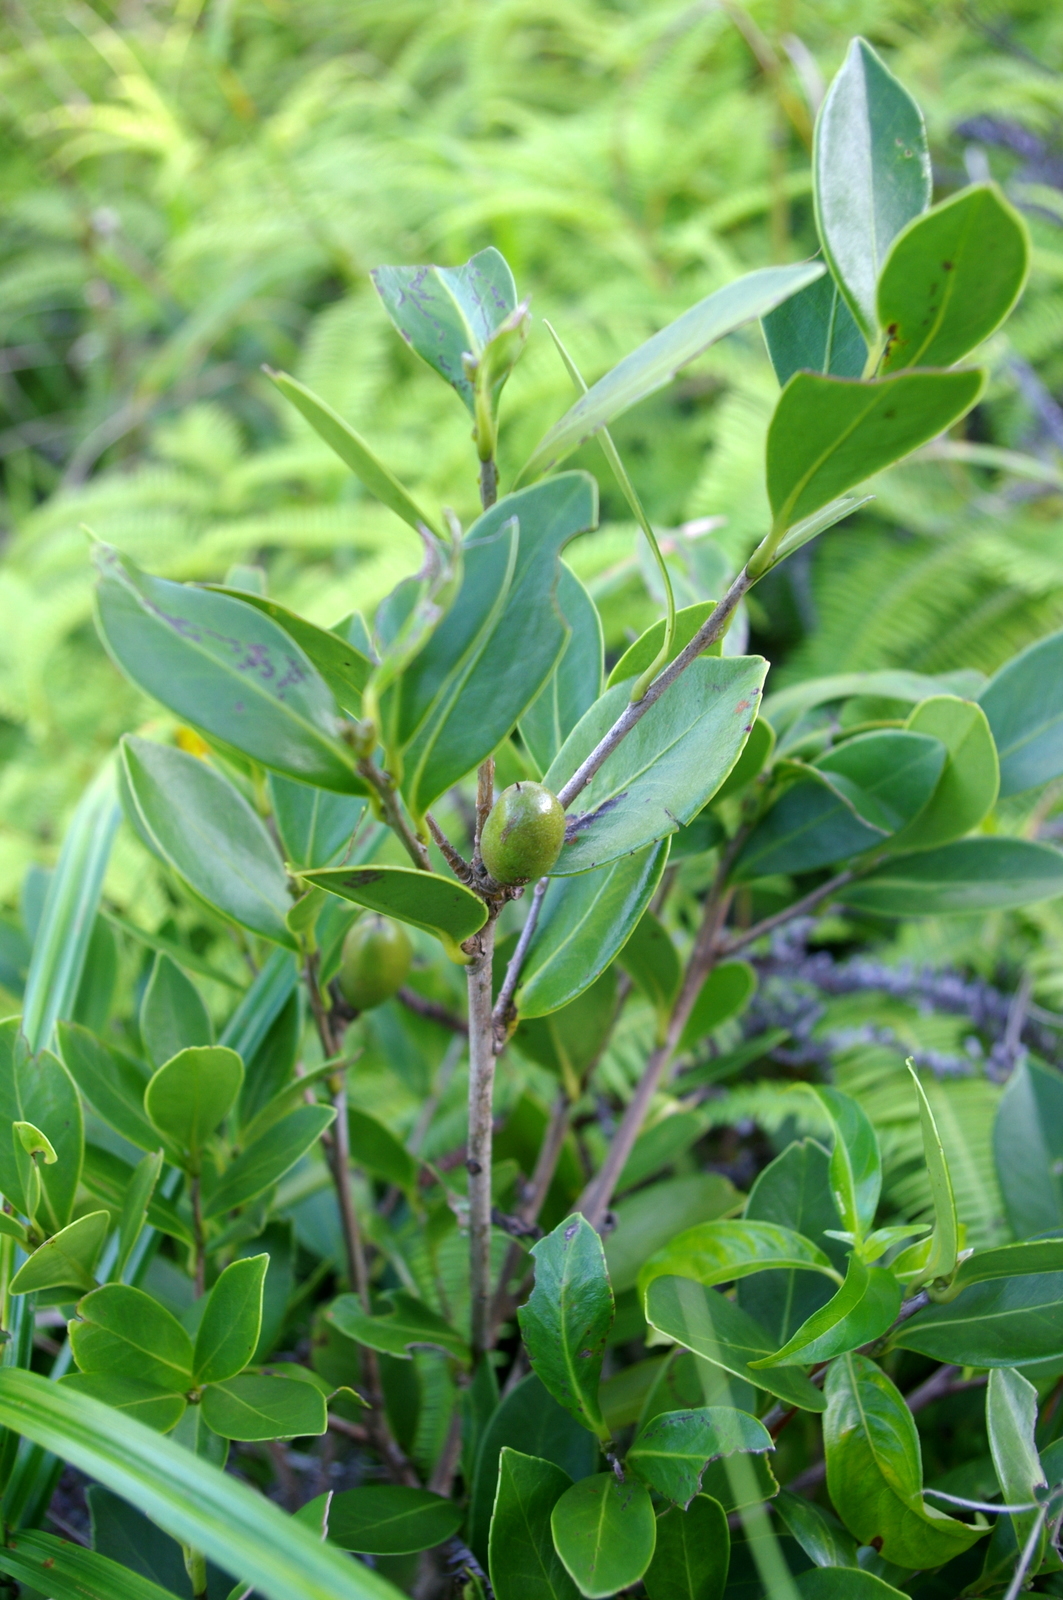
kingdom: Plantae
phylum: Tracheophyta
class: Magnoliopsida
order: Ericales
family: Theaceae
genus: Camellia
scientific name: Camellia brevistyla
